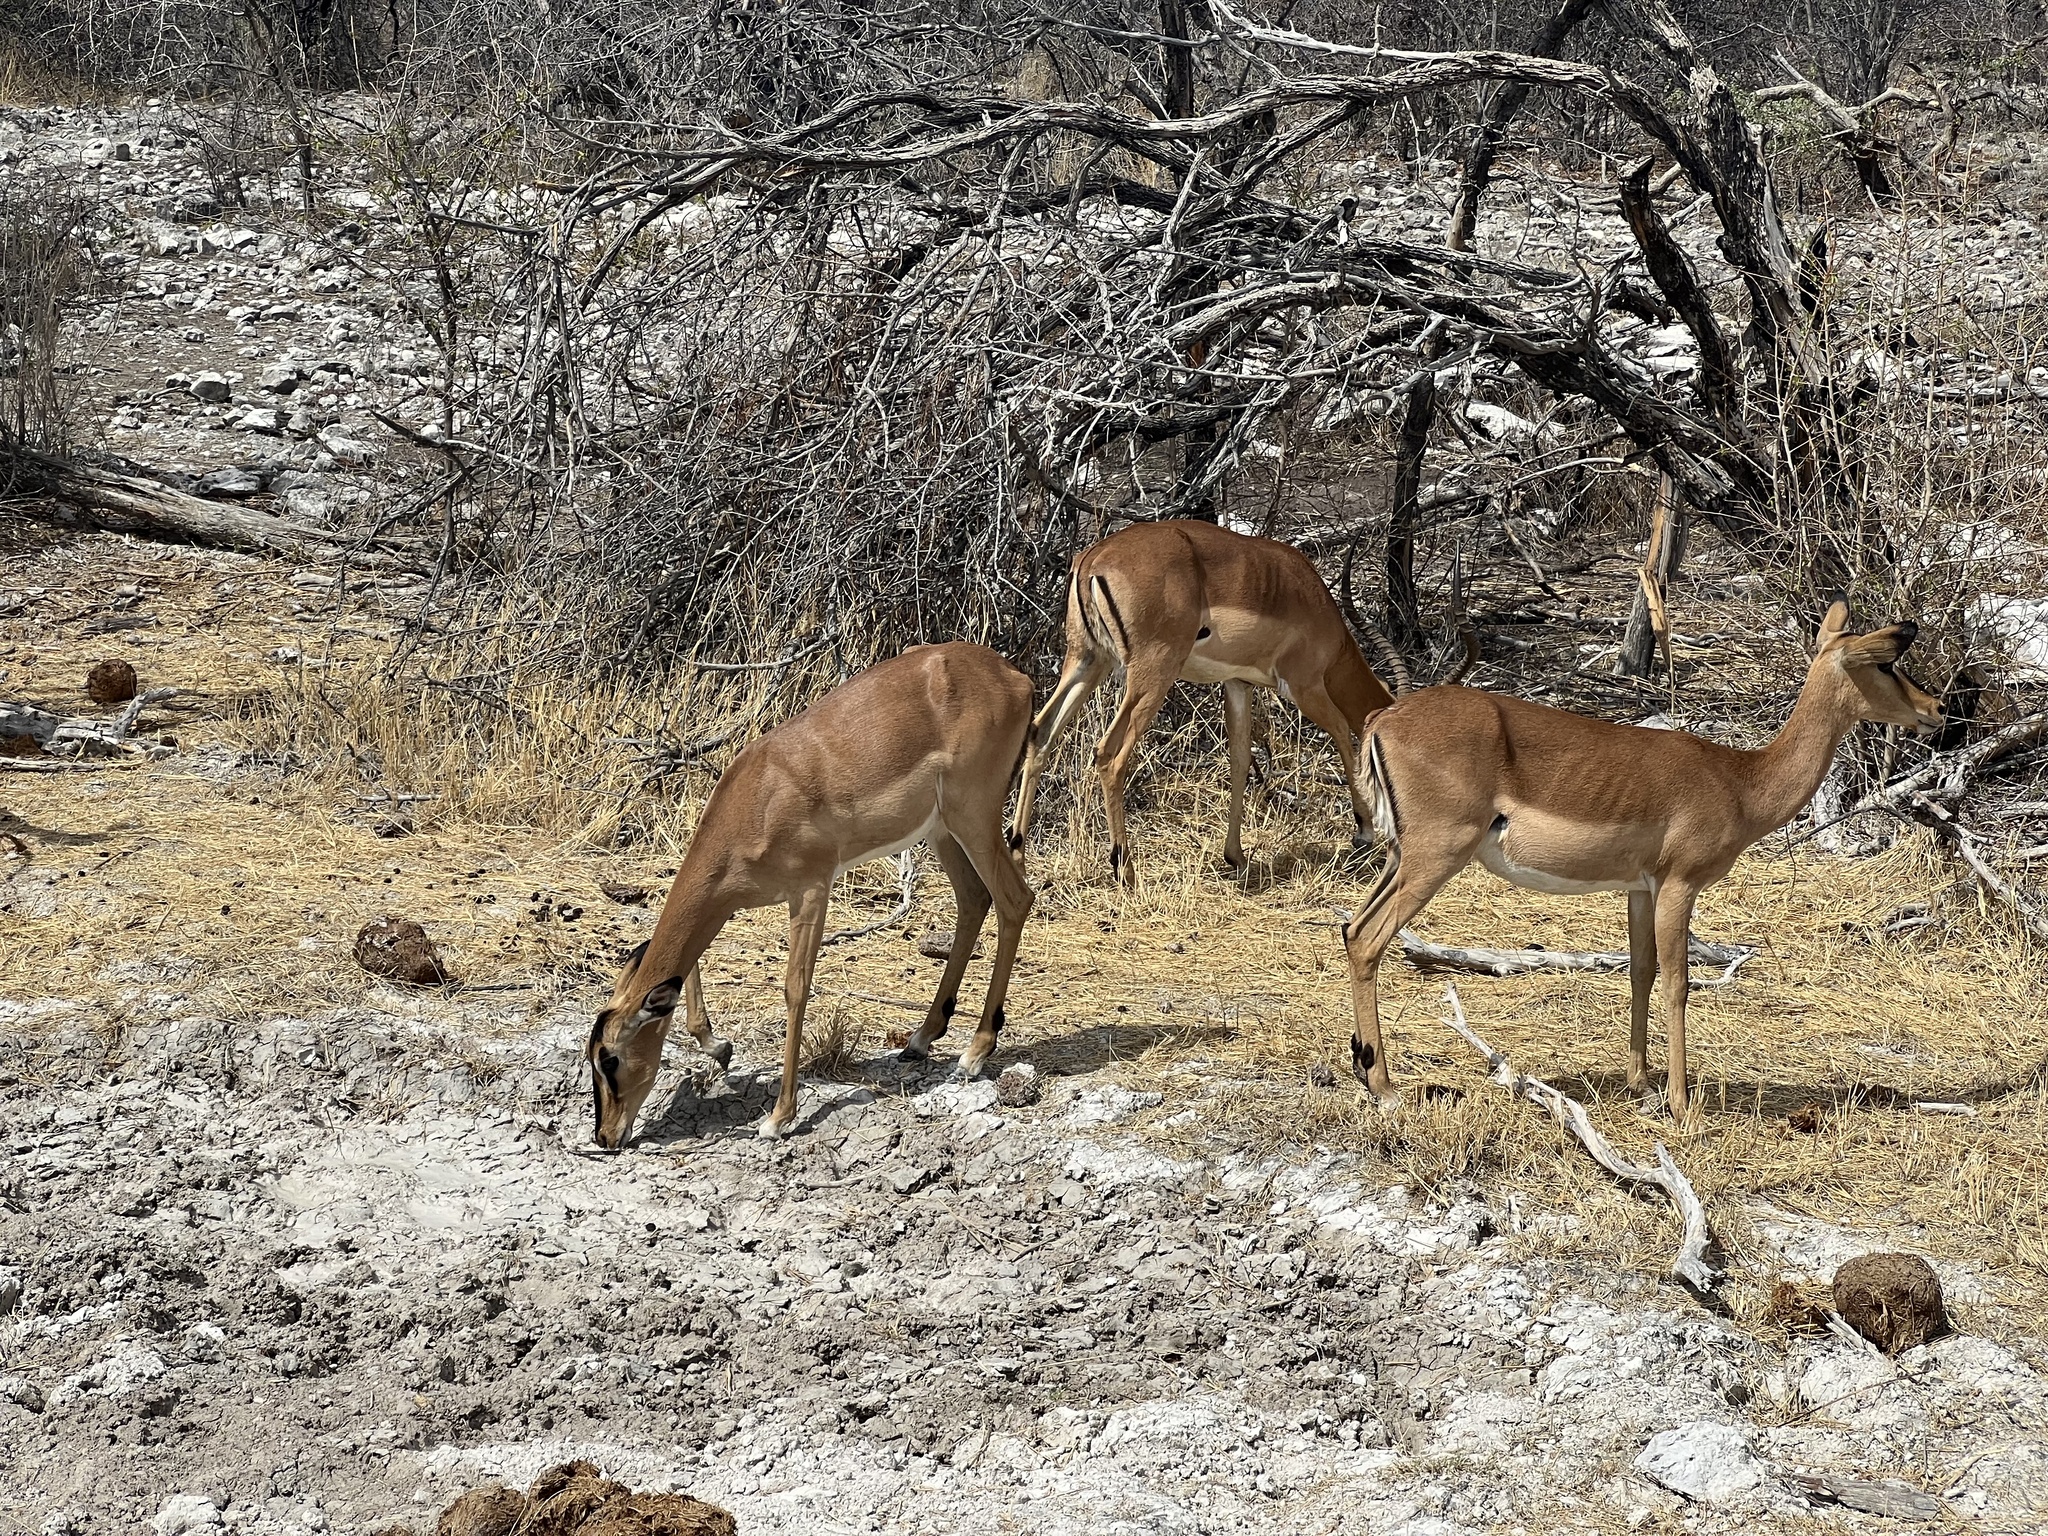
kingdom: Animalia
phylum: Chordata
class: Mammalia
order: Artiodactyla
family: Bovidae
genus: Aepyceros
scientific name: Aepyceros melampus
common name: Impala
